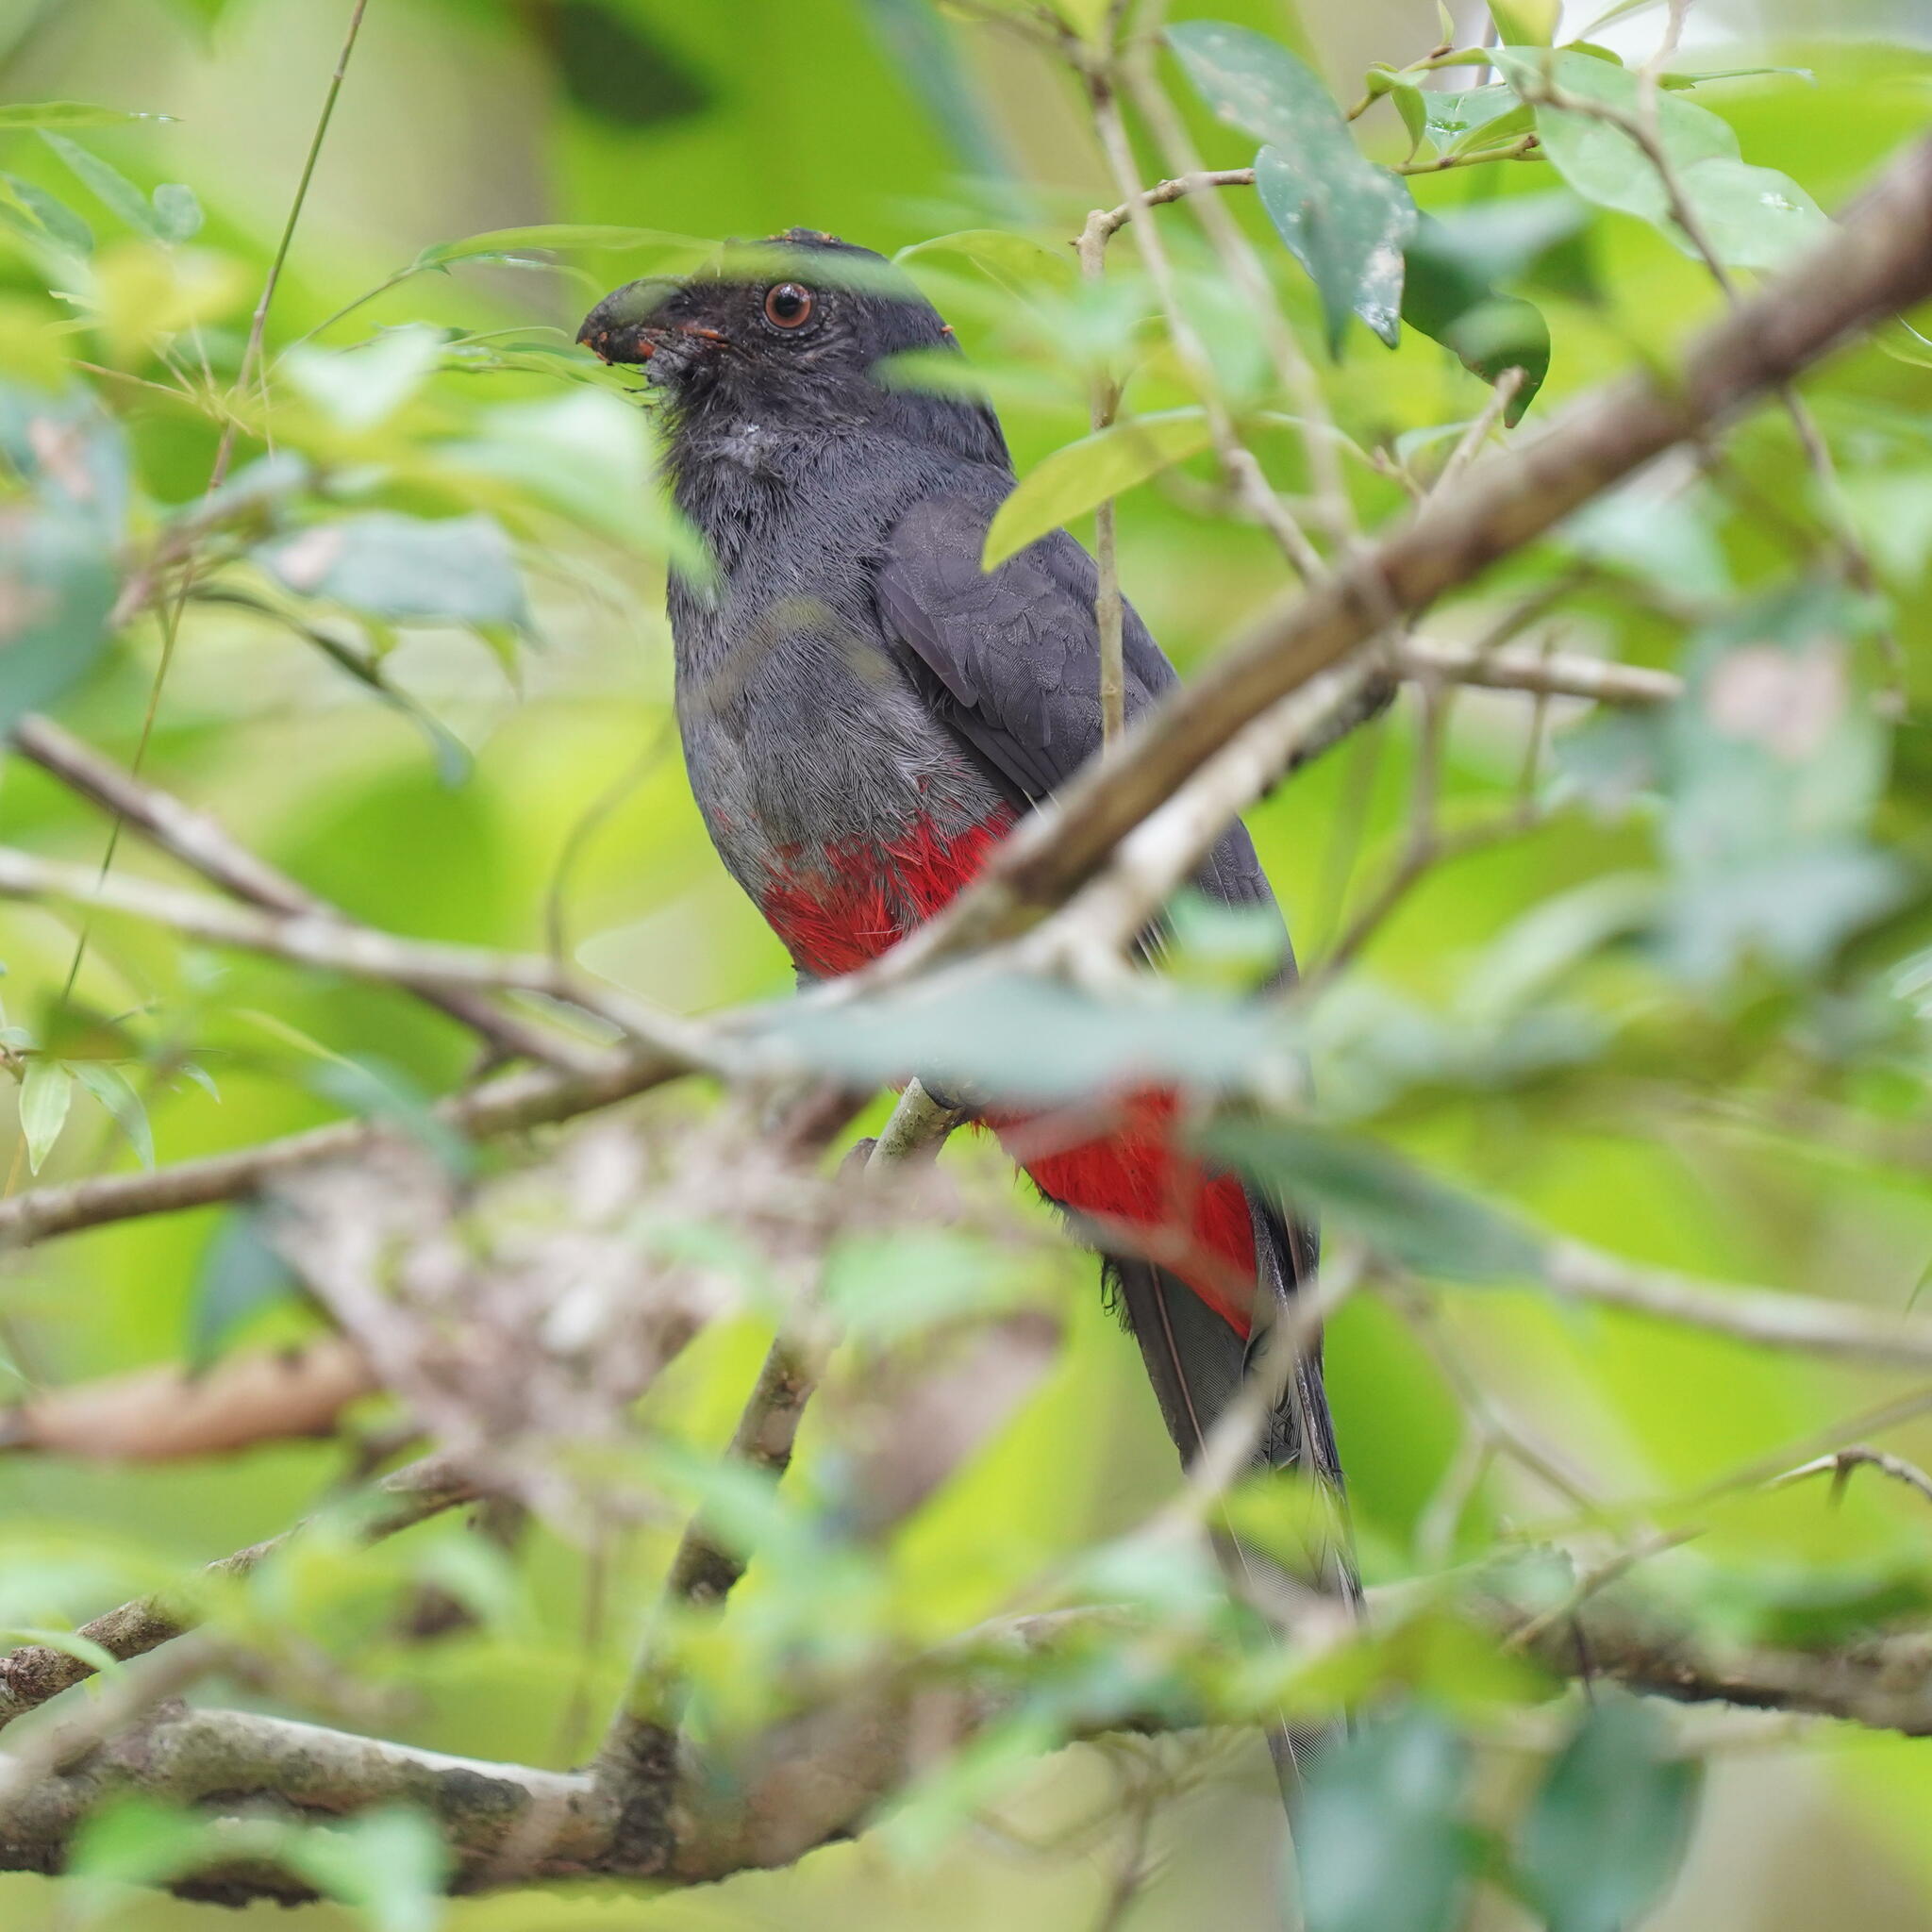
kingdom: Animalia
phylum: Chordata
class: Aves
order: Trogoniformes
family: Trogonidae
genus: Trogon
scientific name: Trogon massena
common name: Slaty-tailed trogon
